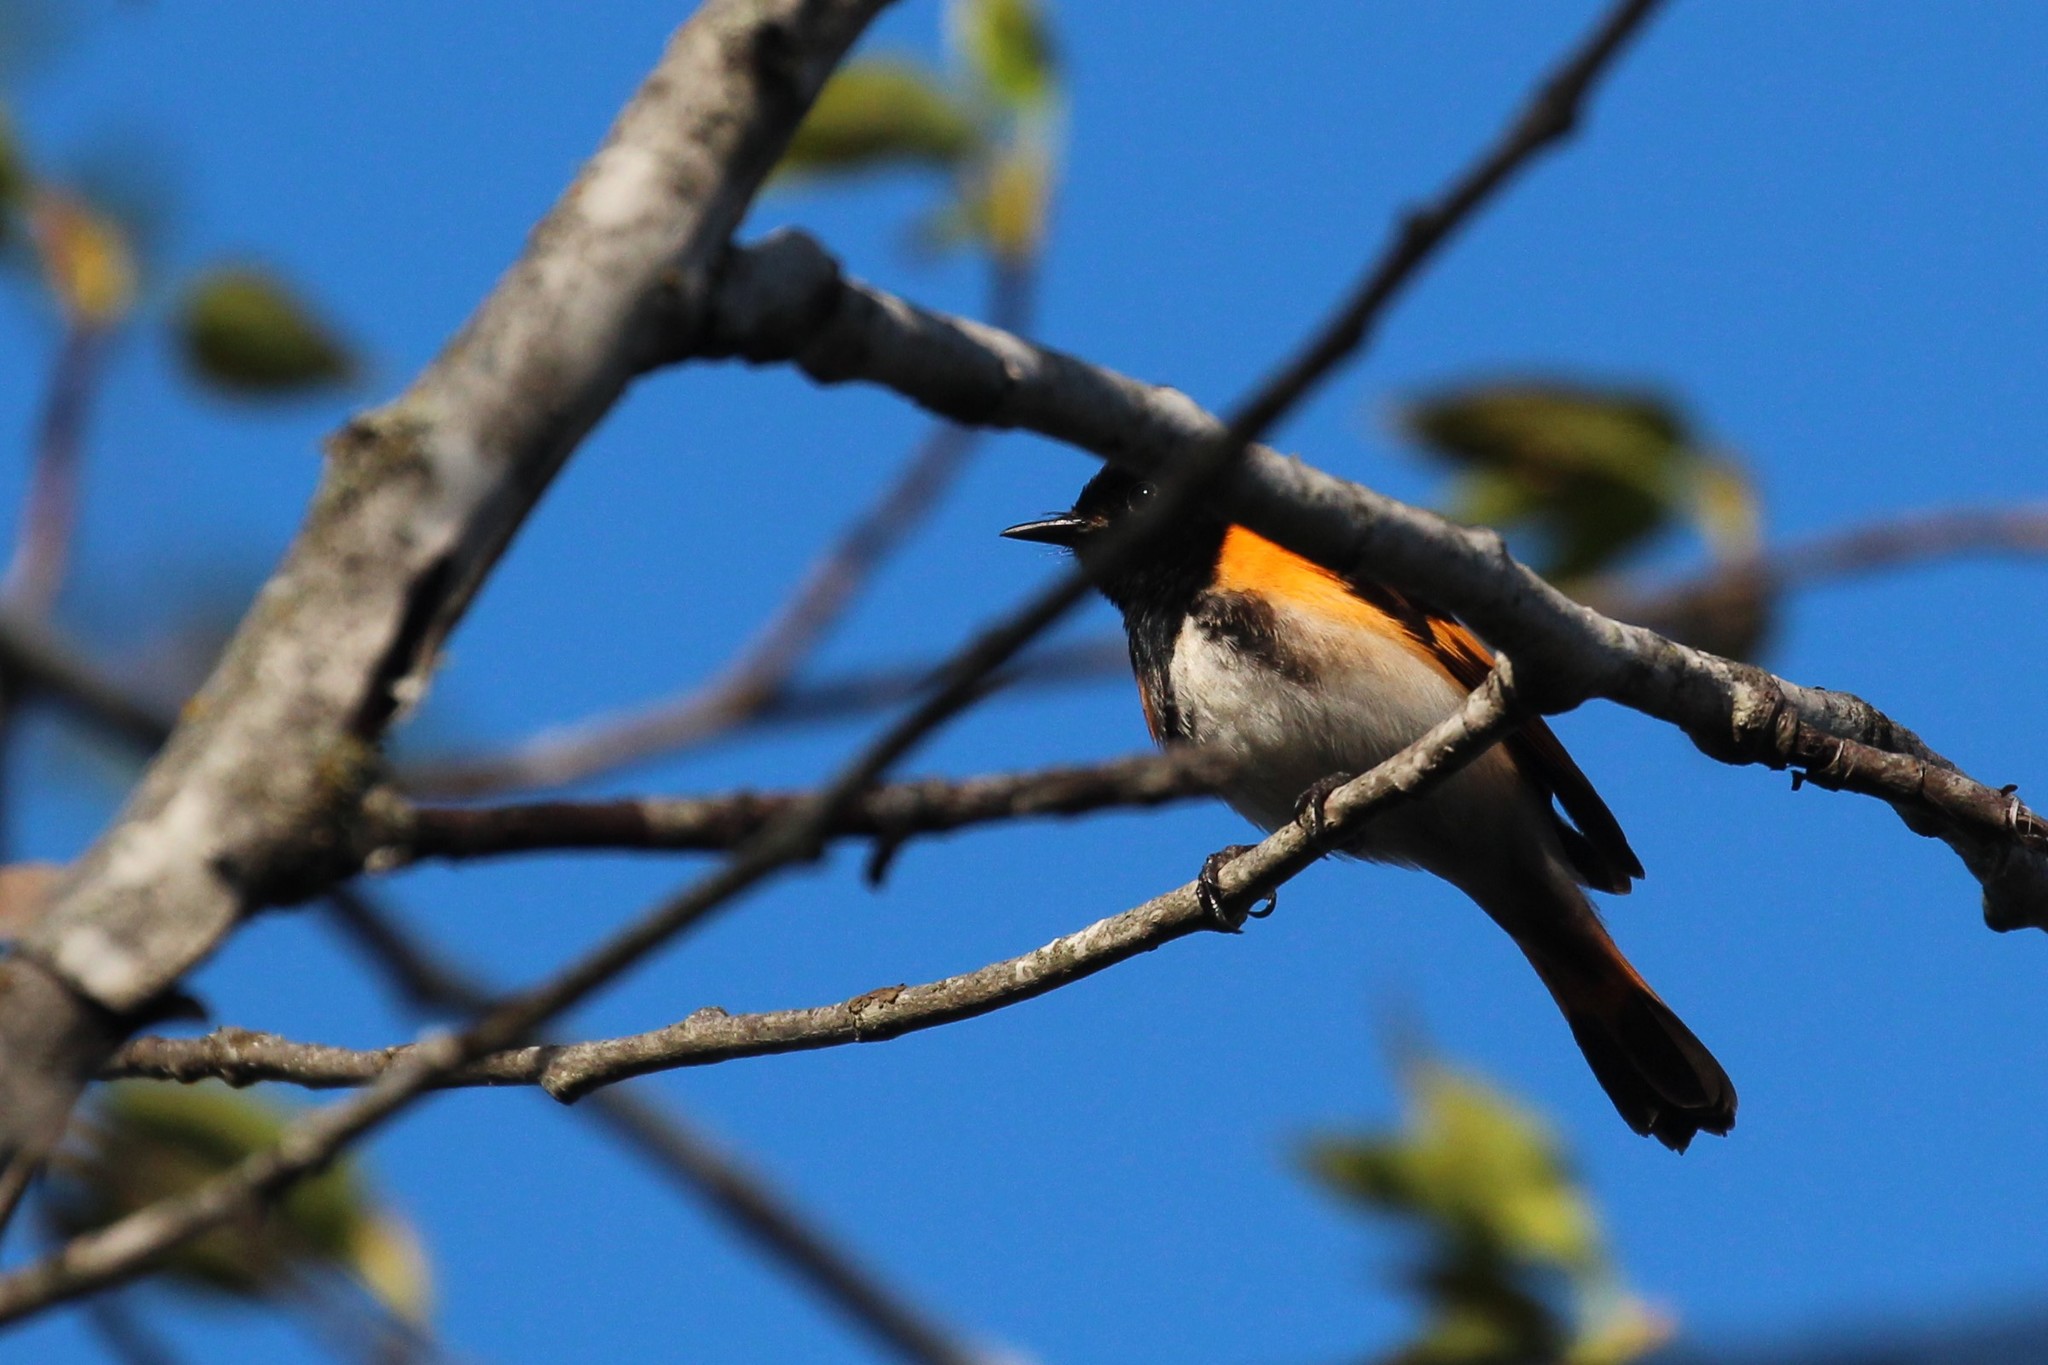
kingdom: Animalia
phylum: Chordata
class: Aves
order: Passeriformes
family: Parulidae
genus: Setophaga
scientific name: Setophaga ruticilla
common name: American redstart
